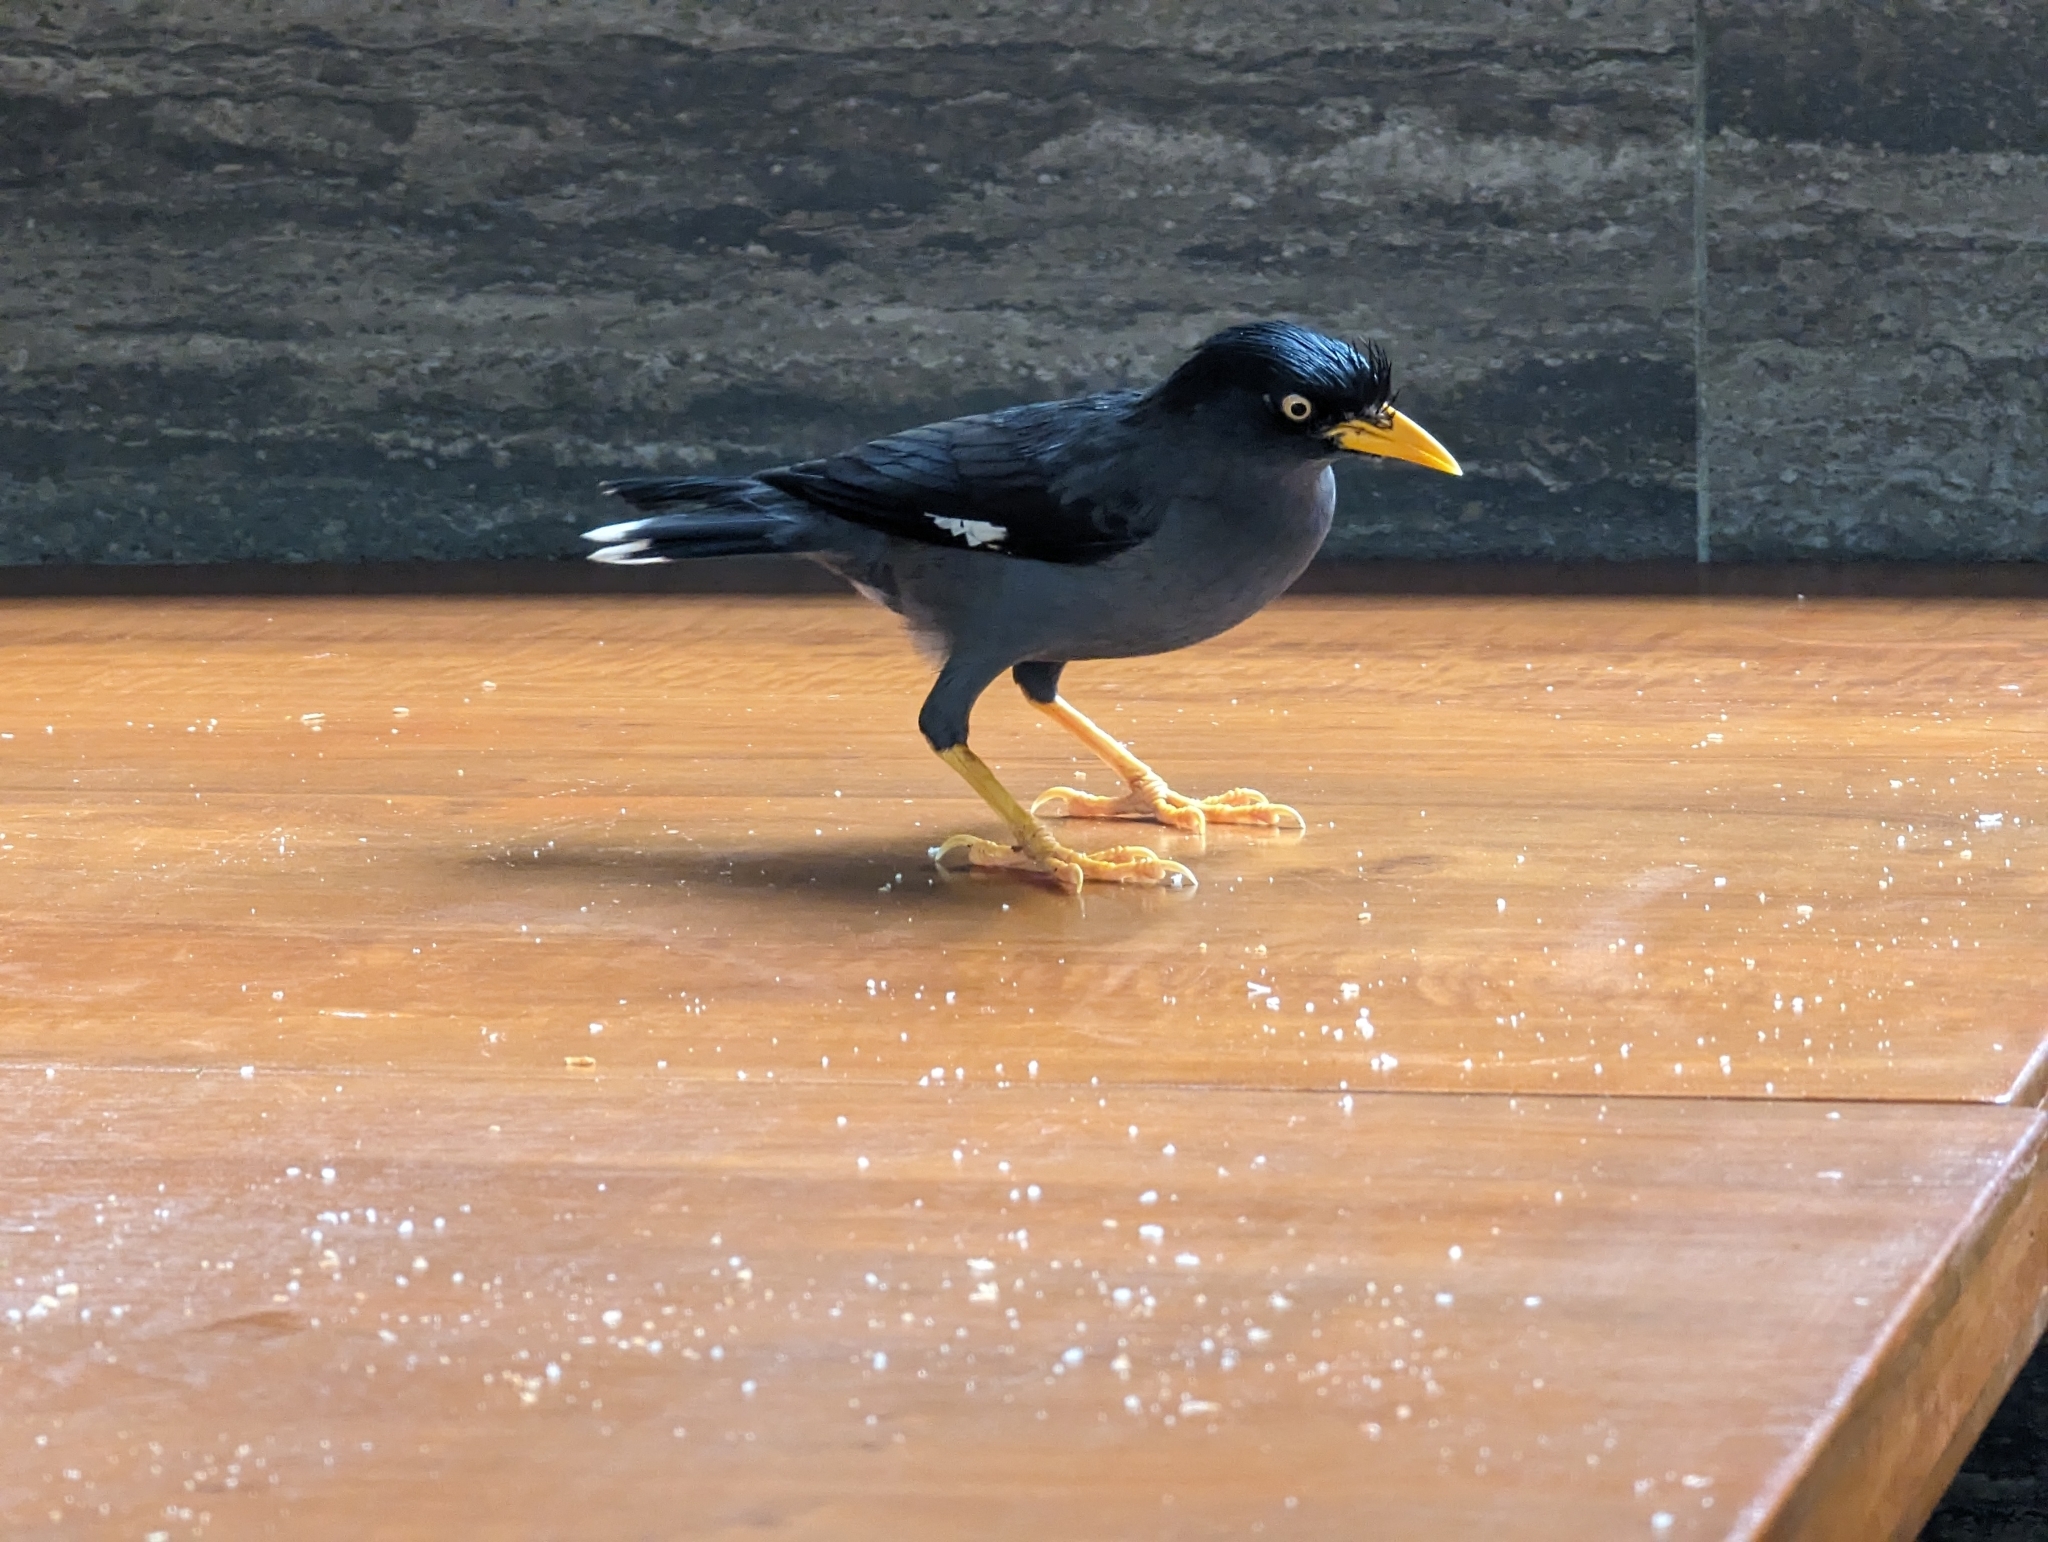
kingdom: Animalia
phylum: Chordata
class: Aves
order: Passeriformes
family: Sturnidae
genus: Acridotheres
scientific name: Acridotheres javanicus
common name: Javan myna
